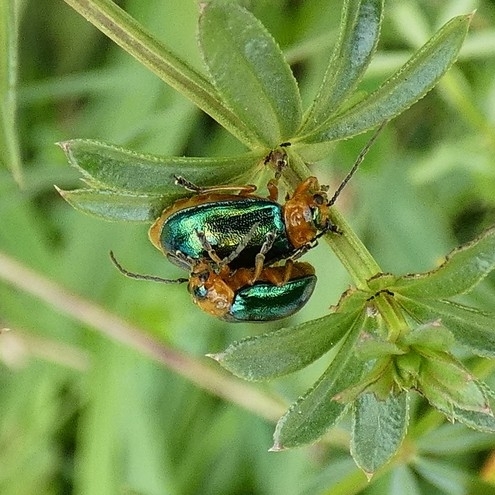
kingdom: Animalia
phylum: Arthropoda
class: Insecta
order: Coleoptera
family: Chrysomelidae
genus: Sermylassa
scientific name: Sermylassa halensis
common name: Leaf beetle
